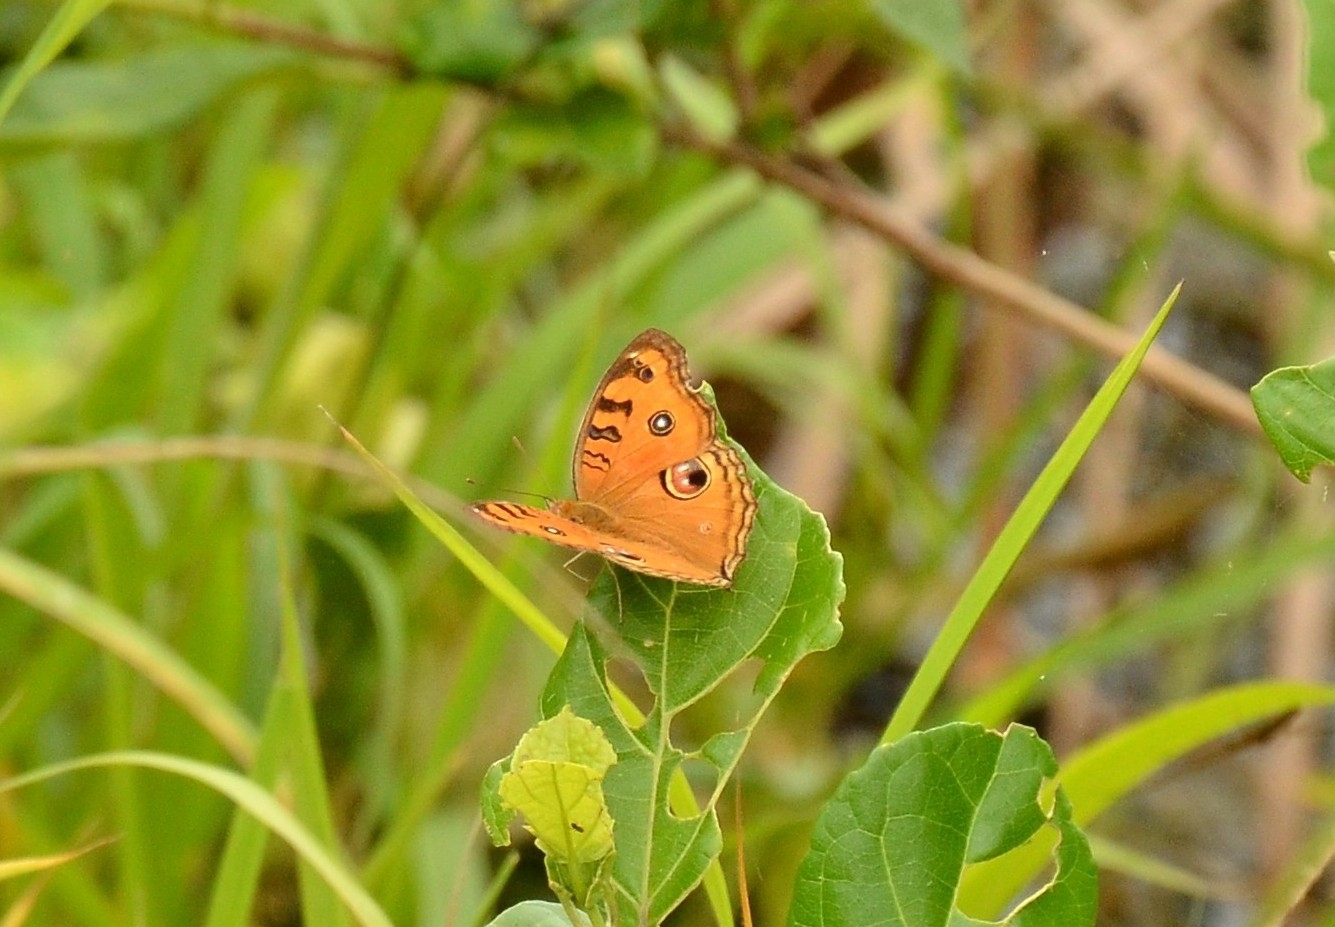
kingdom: Animalia
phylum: Arthropoda
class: Insecta
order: Lepidoptera
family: Nymphalidae
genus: Junonia
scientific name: Junonia almana
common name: Peacock pansy
